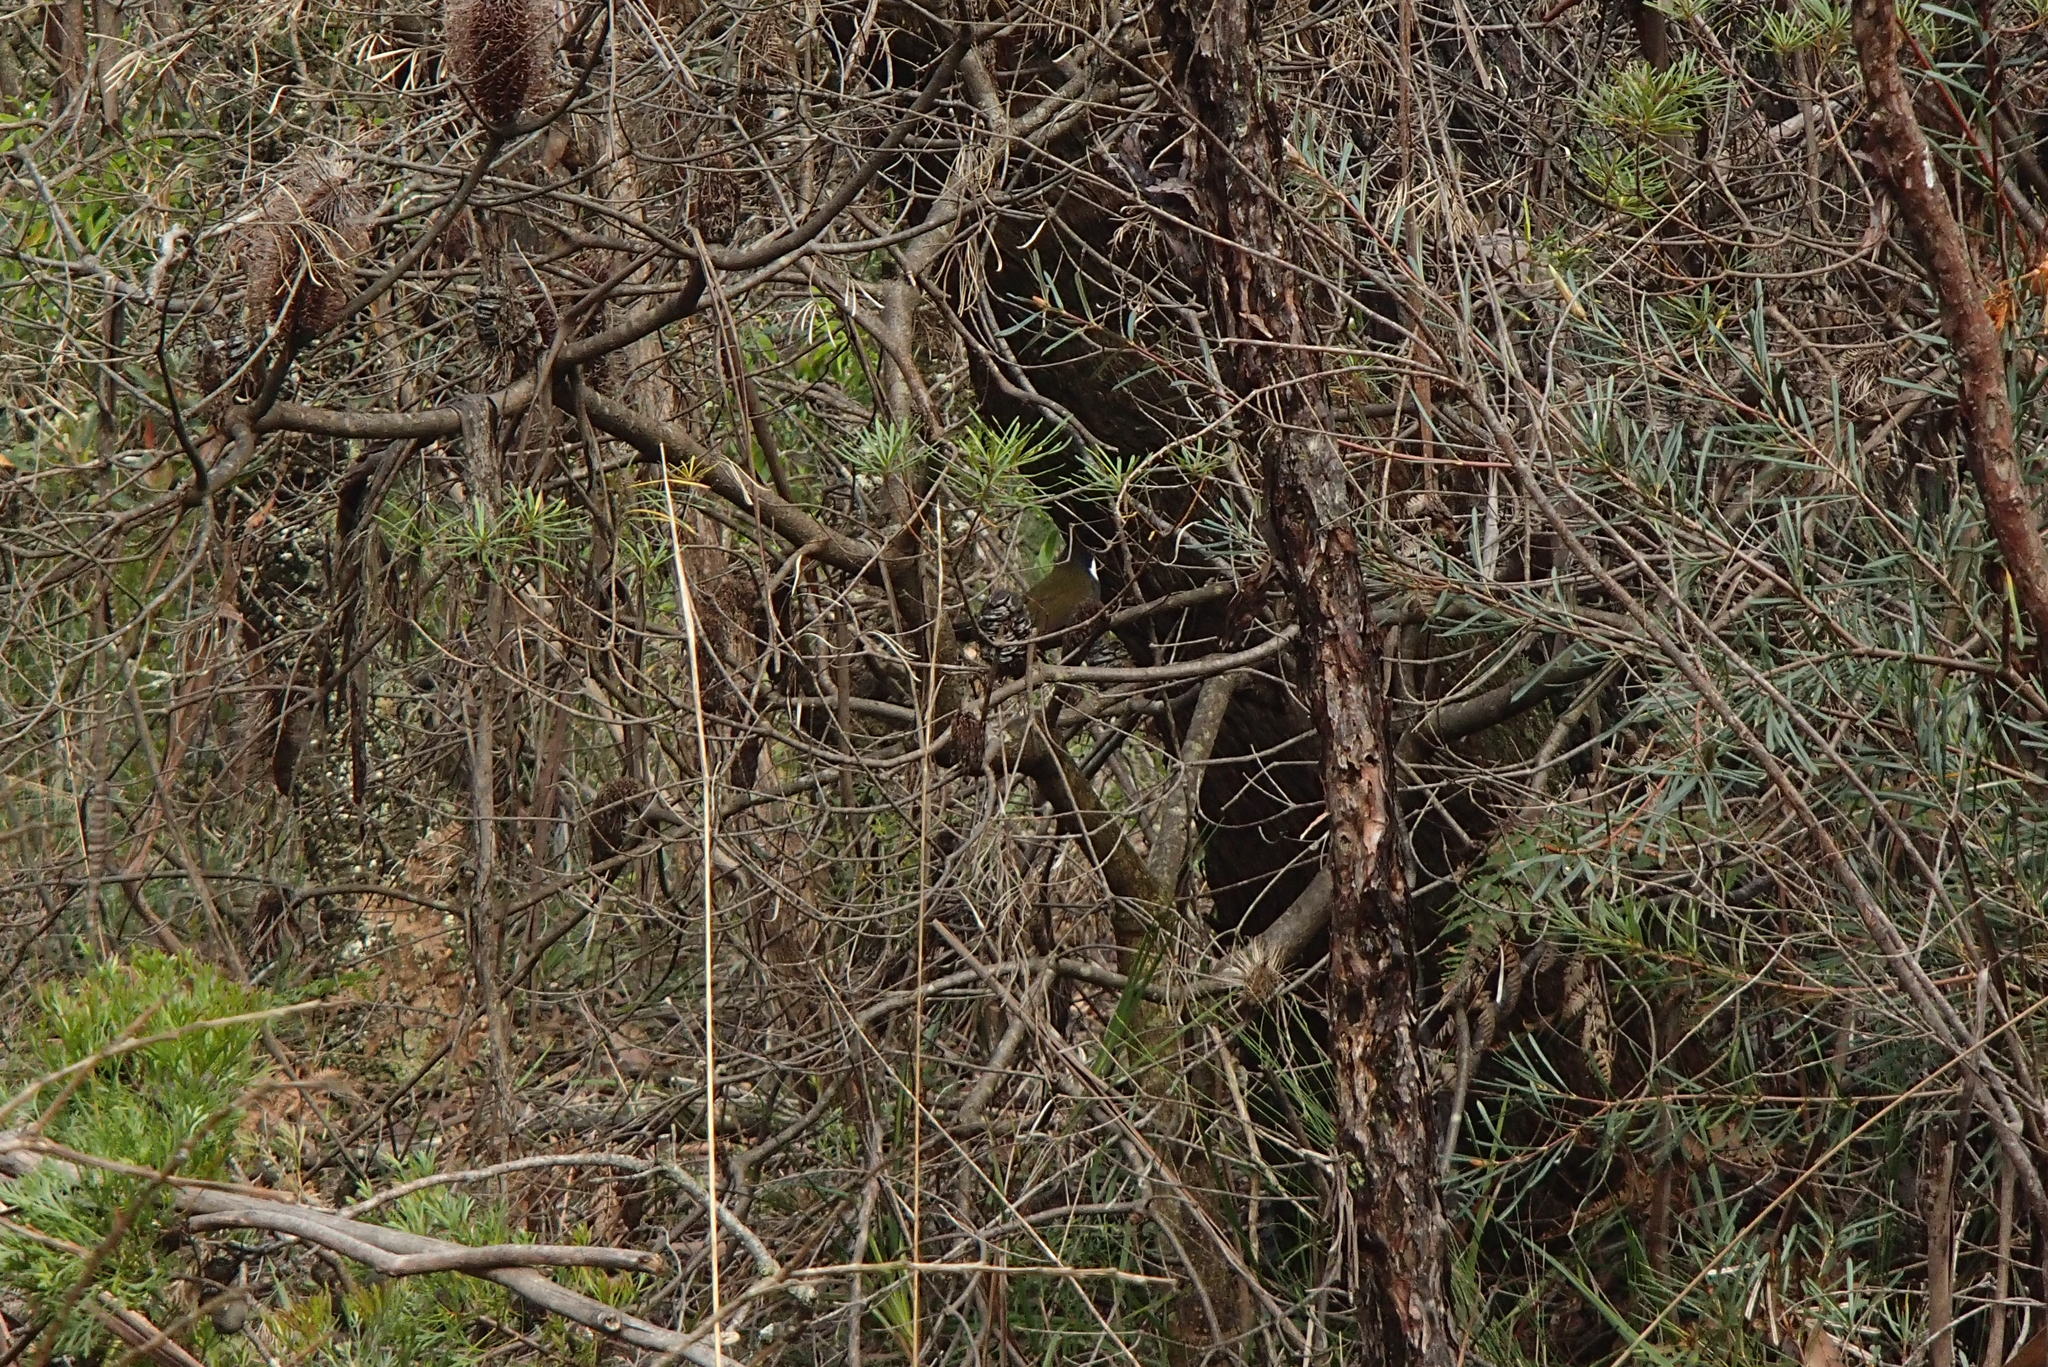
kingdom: Animalia
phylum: Chordata
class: Aves
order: Passeriformes
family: Psophodidae
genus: Psophodes
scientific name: Psophodes olivaceus
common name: Eastern whipbird
